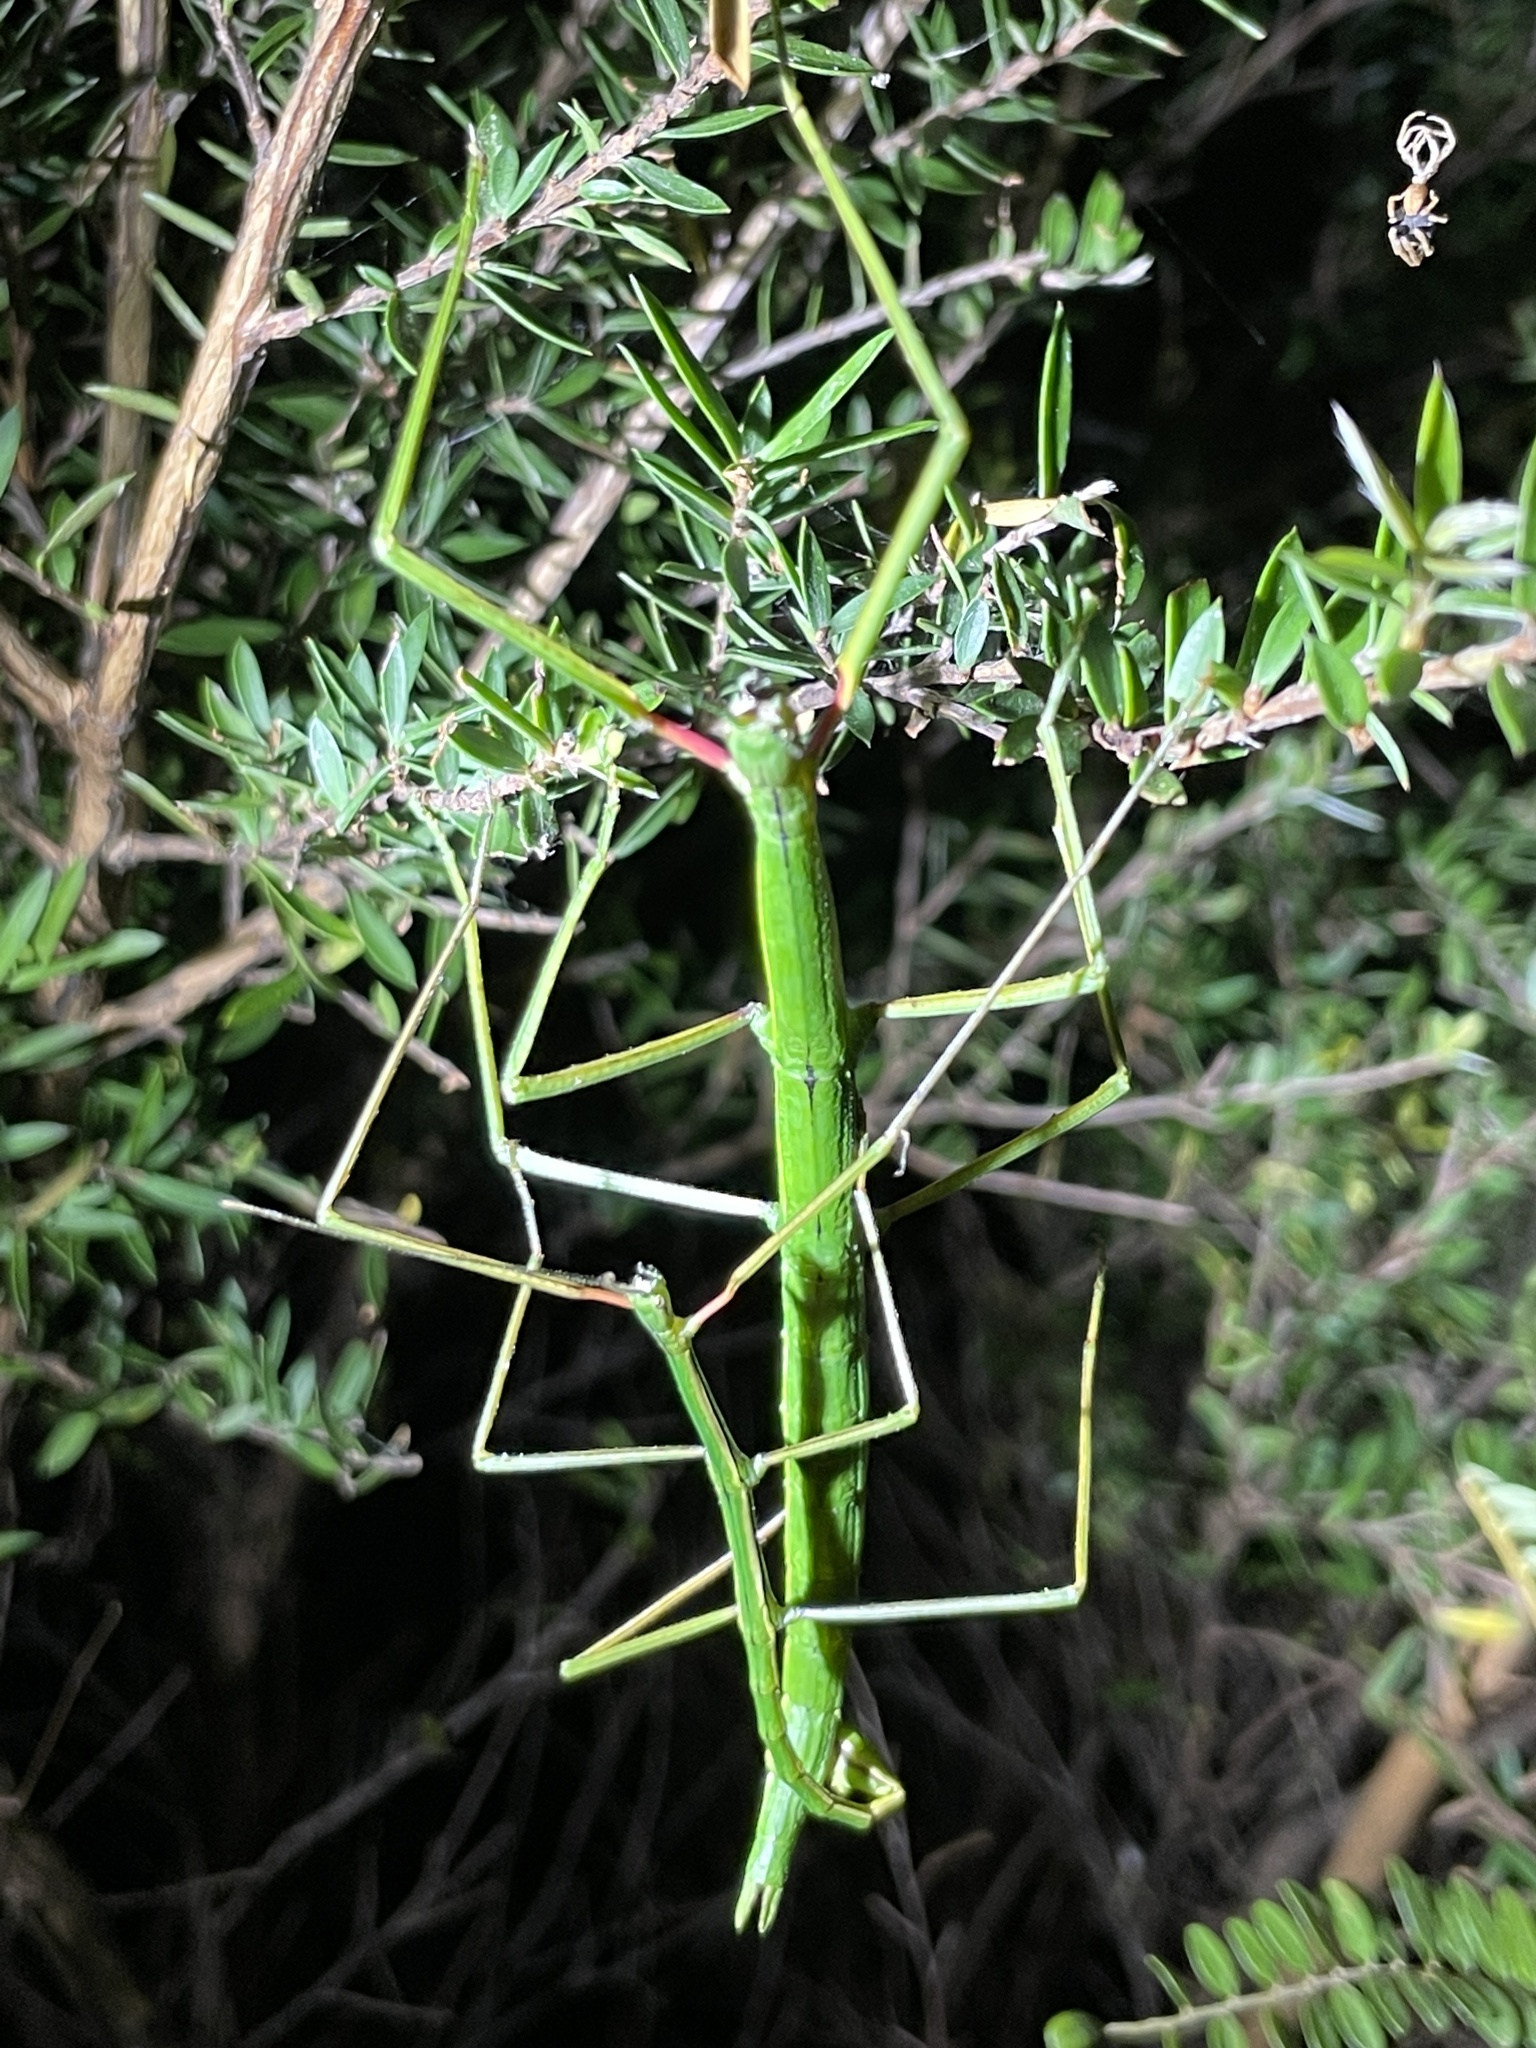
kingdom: Animalia
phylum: Arthropoda
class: Insecta
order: Phasmida
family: Phasmatidae
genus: Clitarchus
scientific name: Clitarchus hookeri
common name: Smooth stick insect
